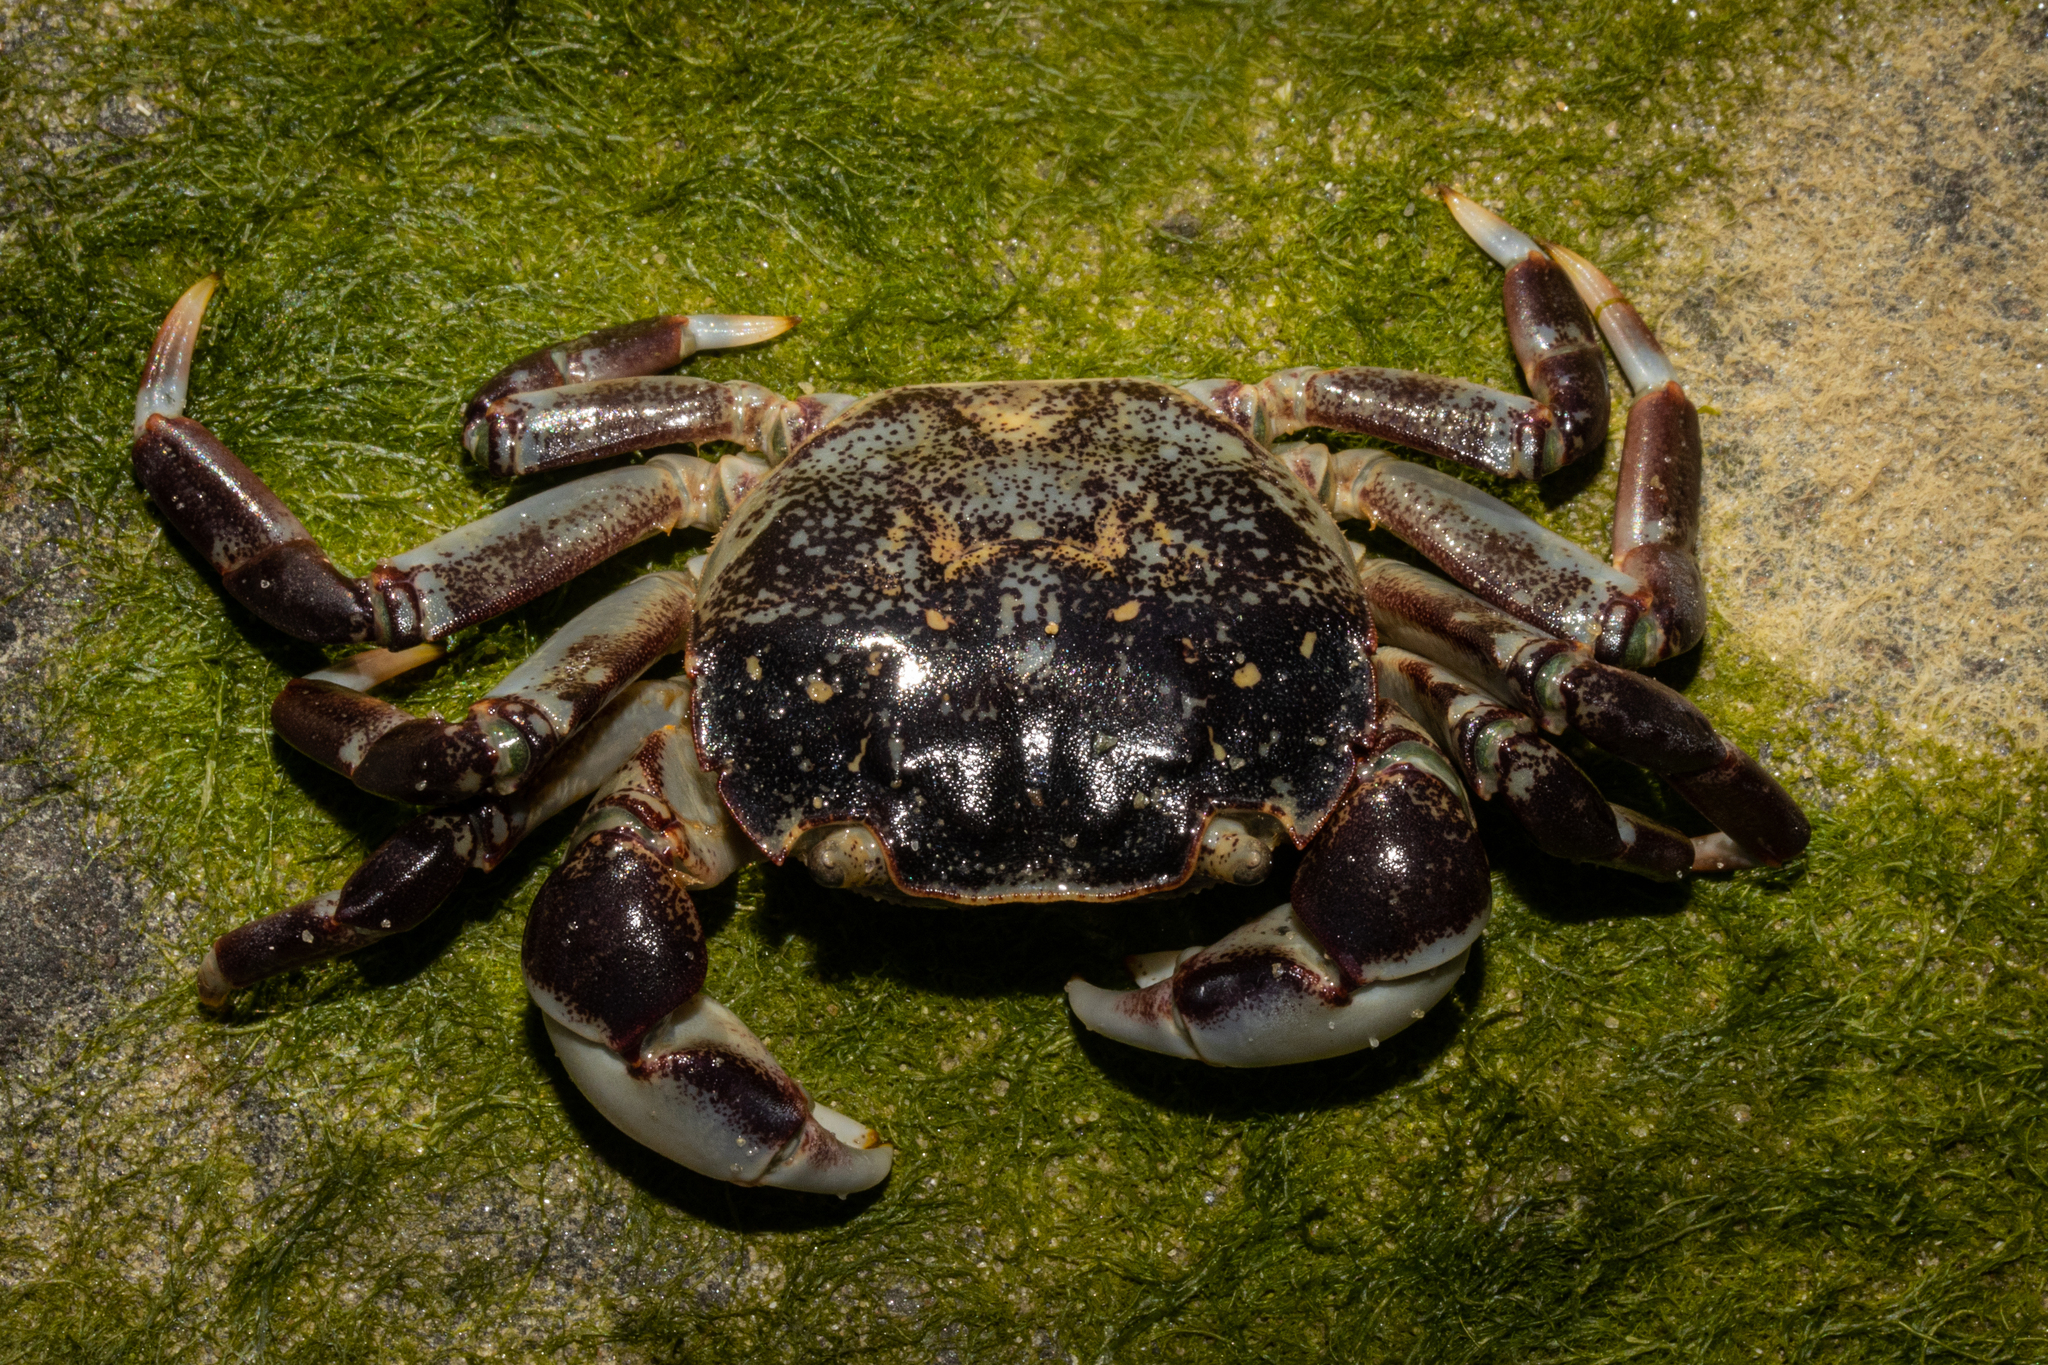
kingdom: Animalia
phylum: Arthropoda
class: Malacostraca
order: Decapoda
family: Varunidae
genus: Hemigrapsus
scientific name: Hemigrapsus sexdentatus
